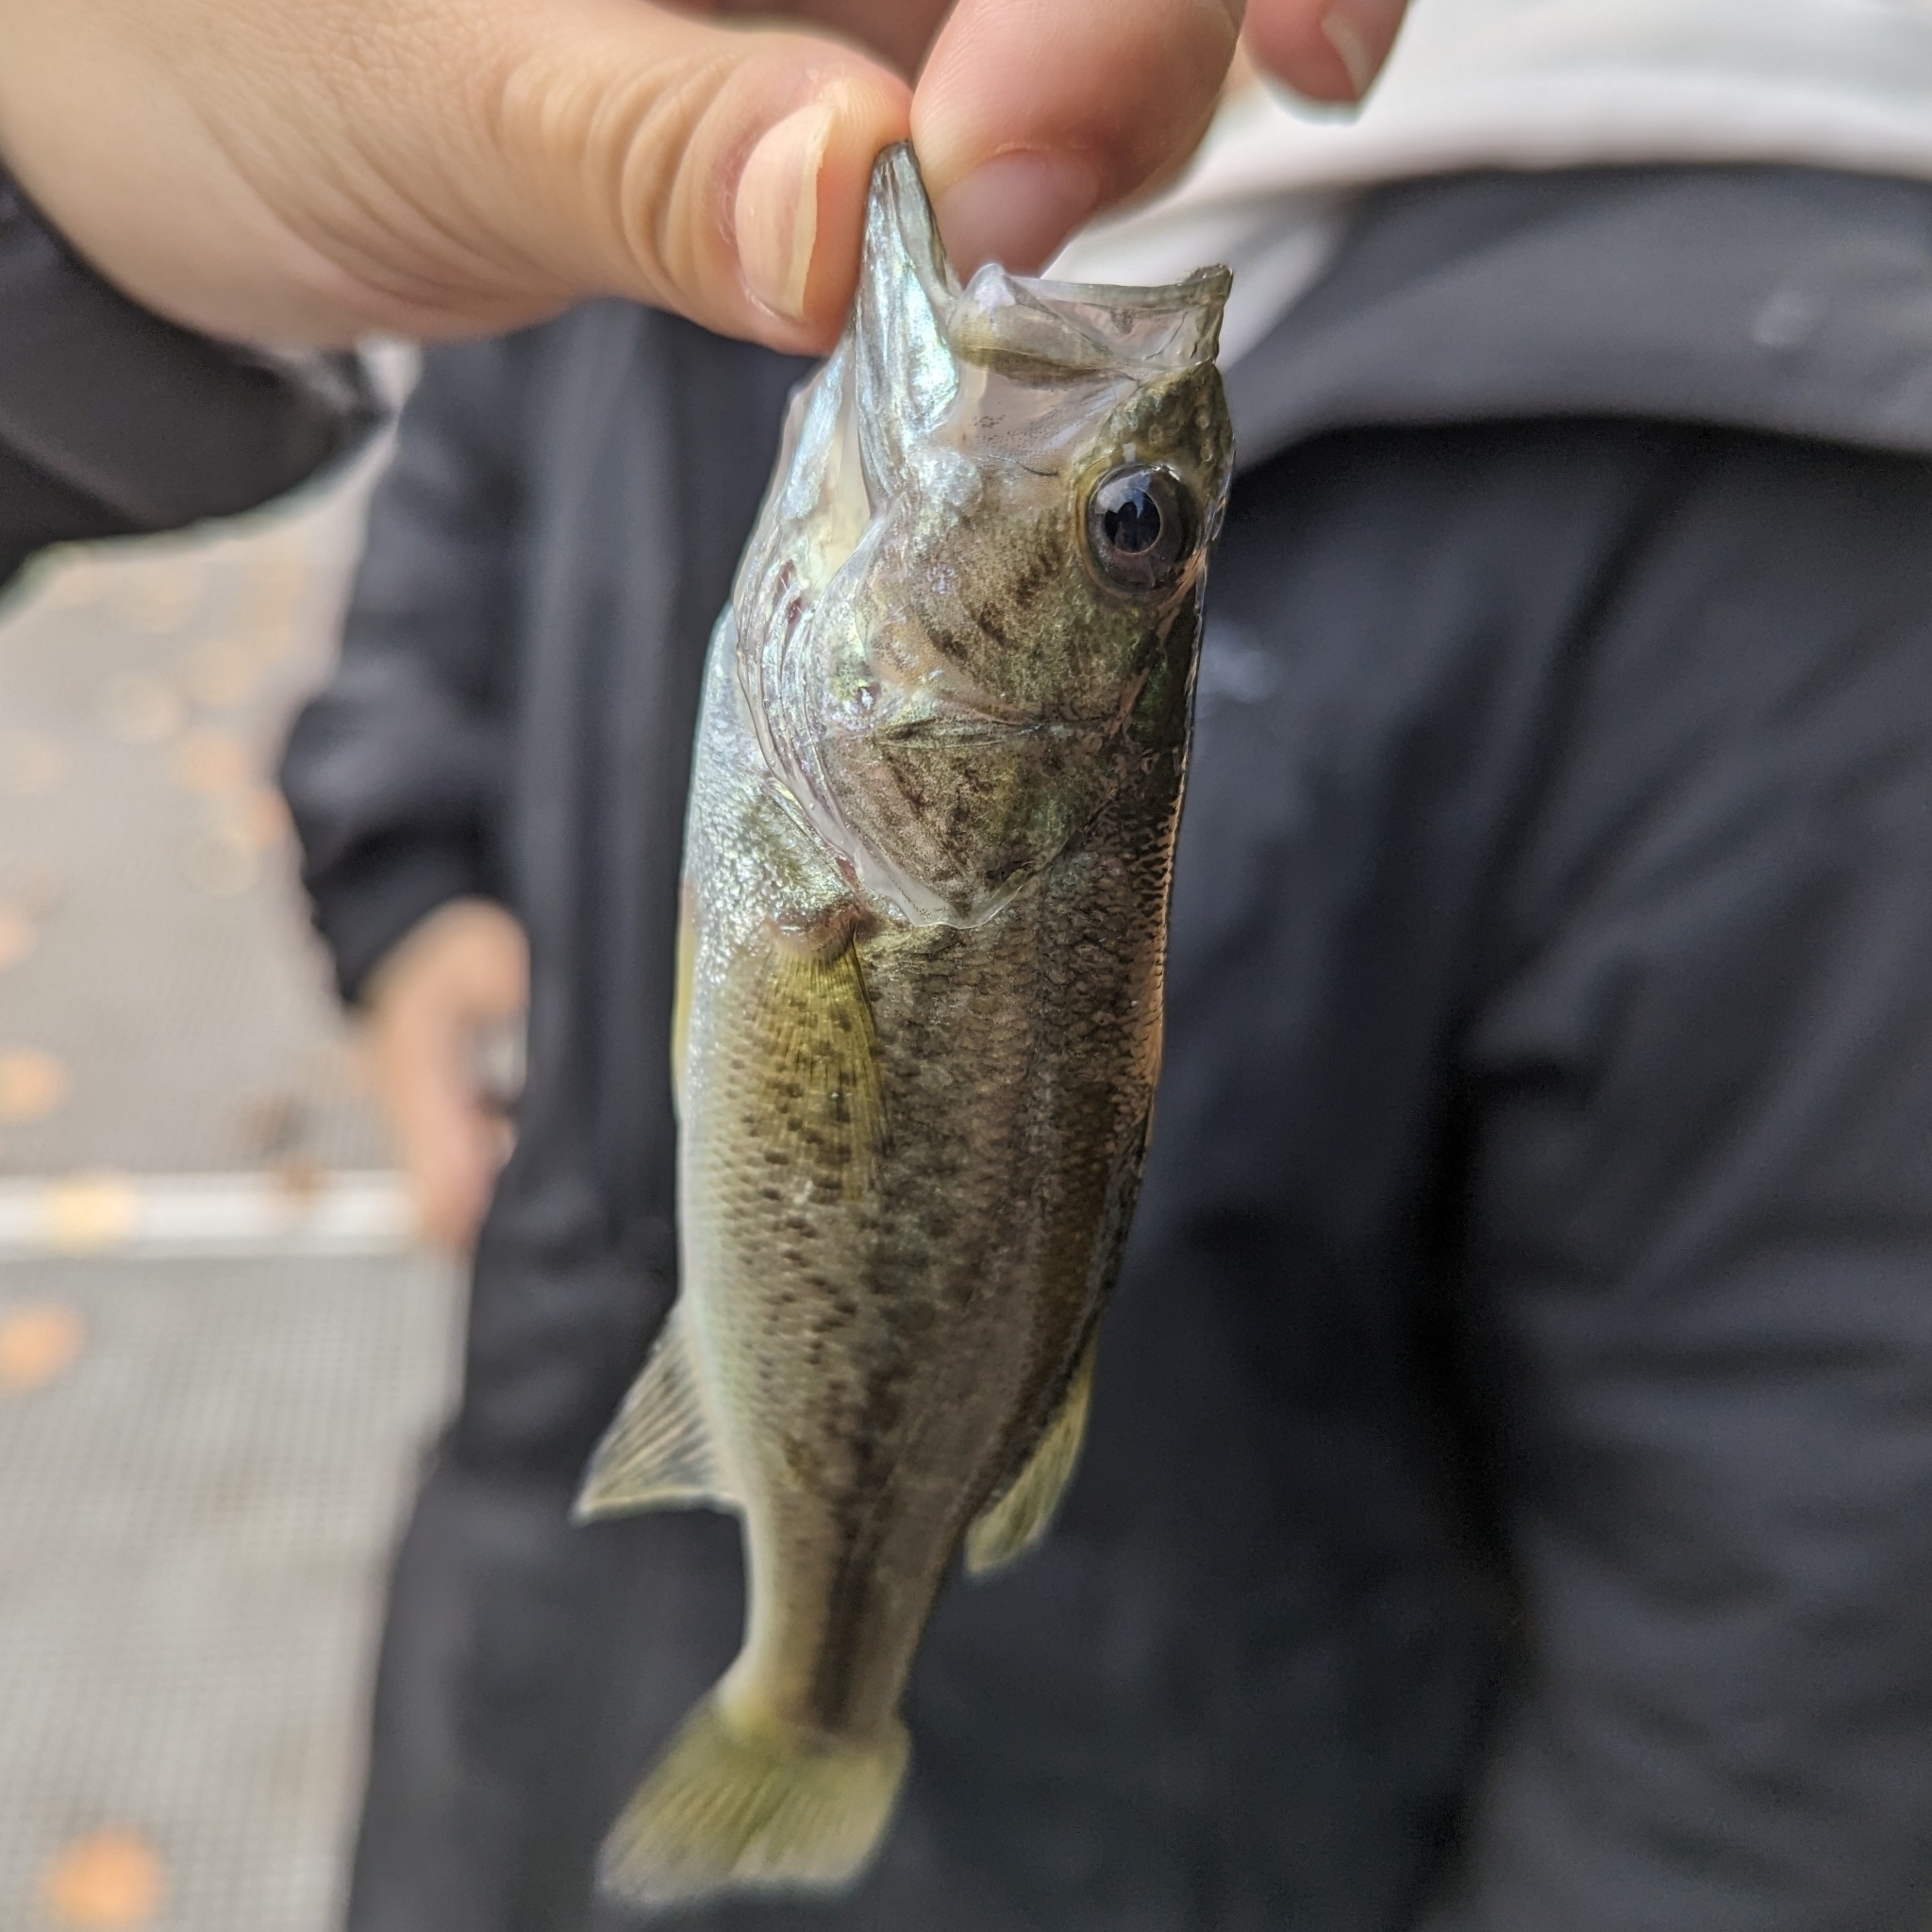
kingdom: Animalia
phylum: Chordata
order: Perciformes
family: Centrarchidae
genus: Micropterus
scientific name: Micropterus
